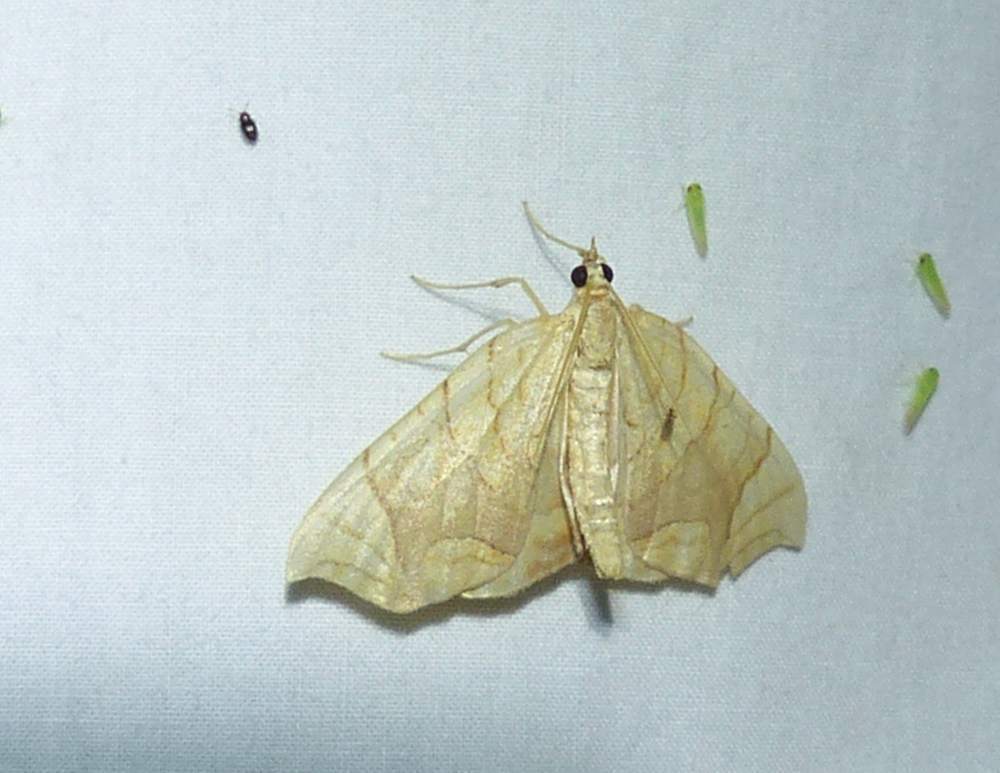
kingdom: Animalia
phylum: Arthropoda
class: Insecta
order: Lepidoptera
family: Geometridae
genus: Eulithis
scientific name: Eulithis
